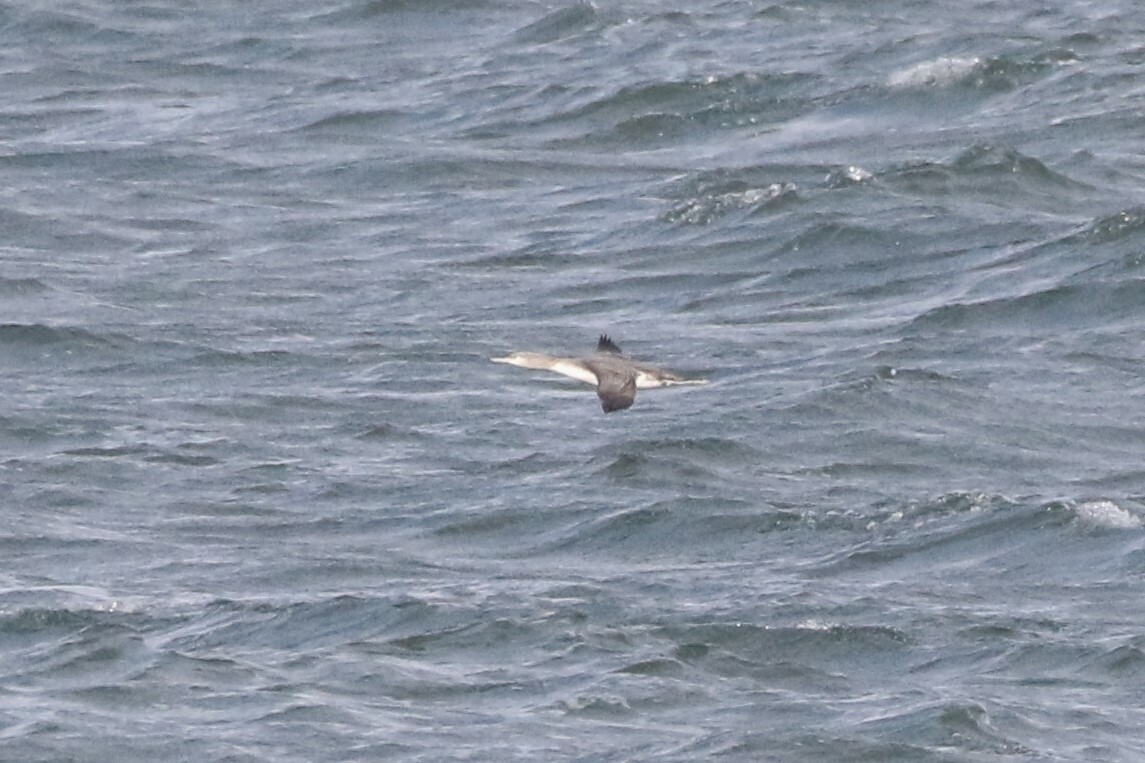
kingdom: Animalia
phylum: Chordata
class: Aves
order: Gaviiformes
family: Gaviidae
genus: Gavia
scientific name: Gavia stellata
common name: Red-throated loon
